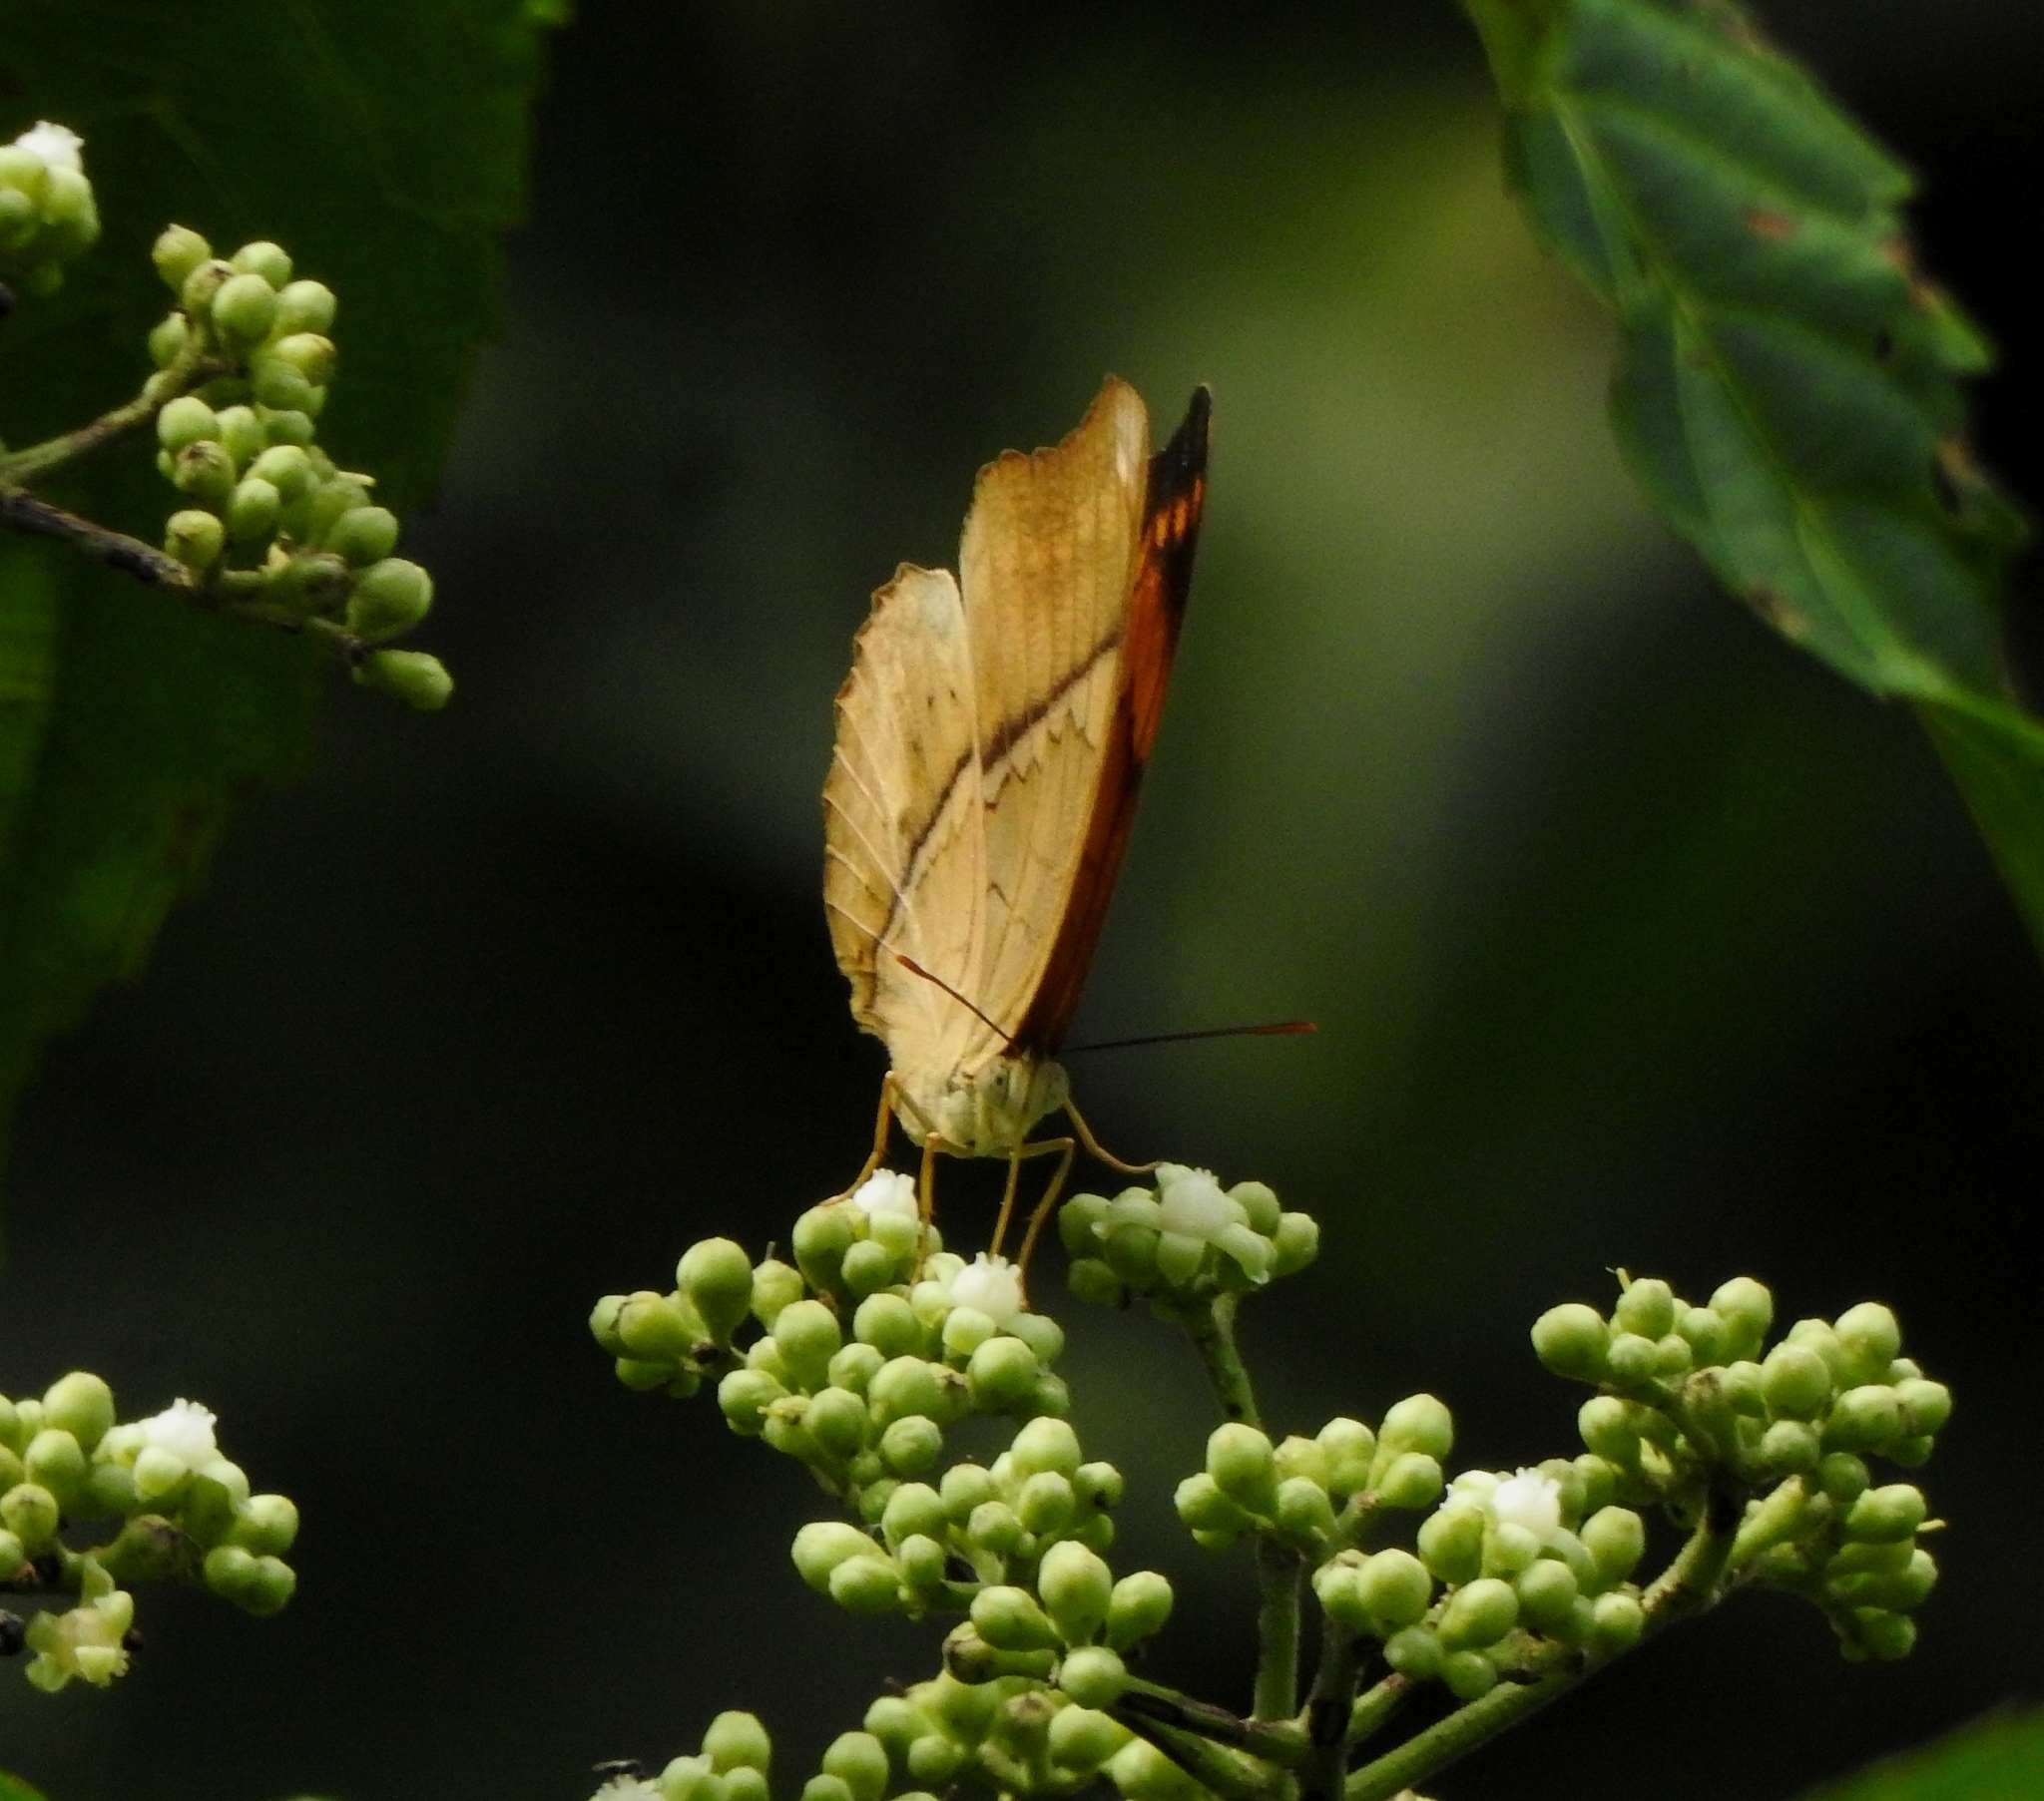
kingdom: Animalia
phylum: Arthropoda
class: Insecta
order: Lepidoptera
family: Nymphalidae
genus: Cirrochroa
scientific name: Cirrochroa thais
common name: Tamil yeoman
